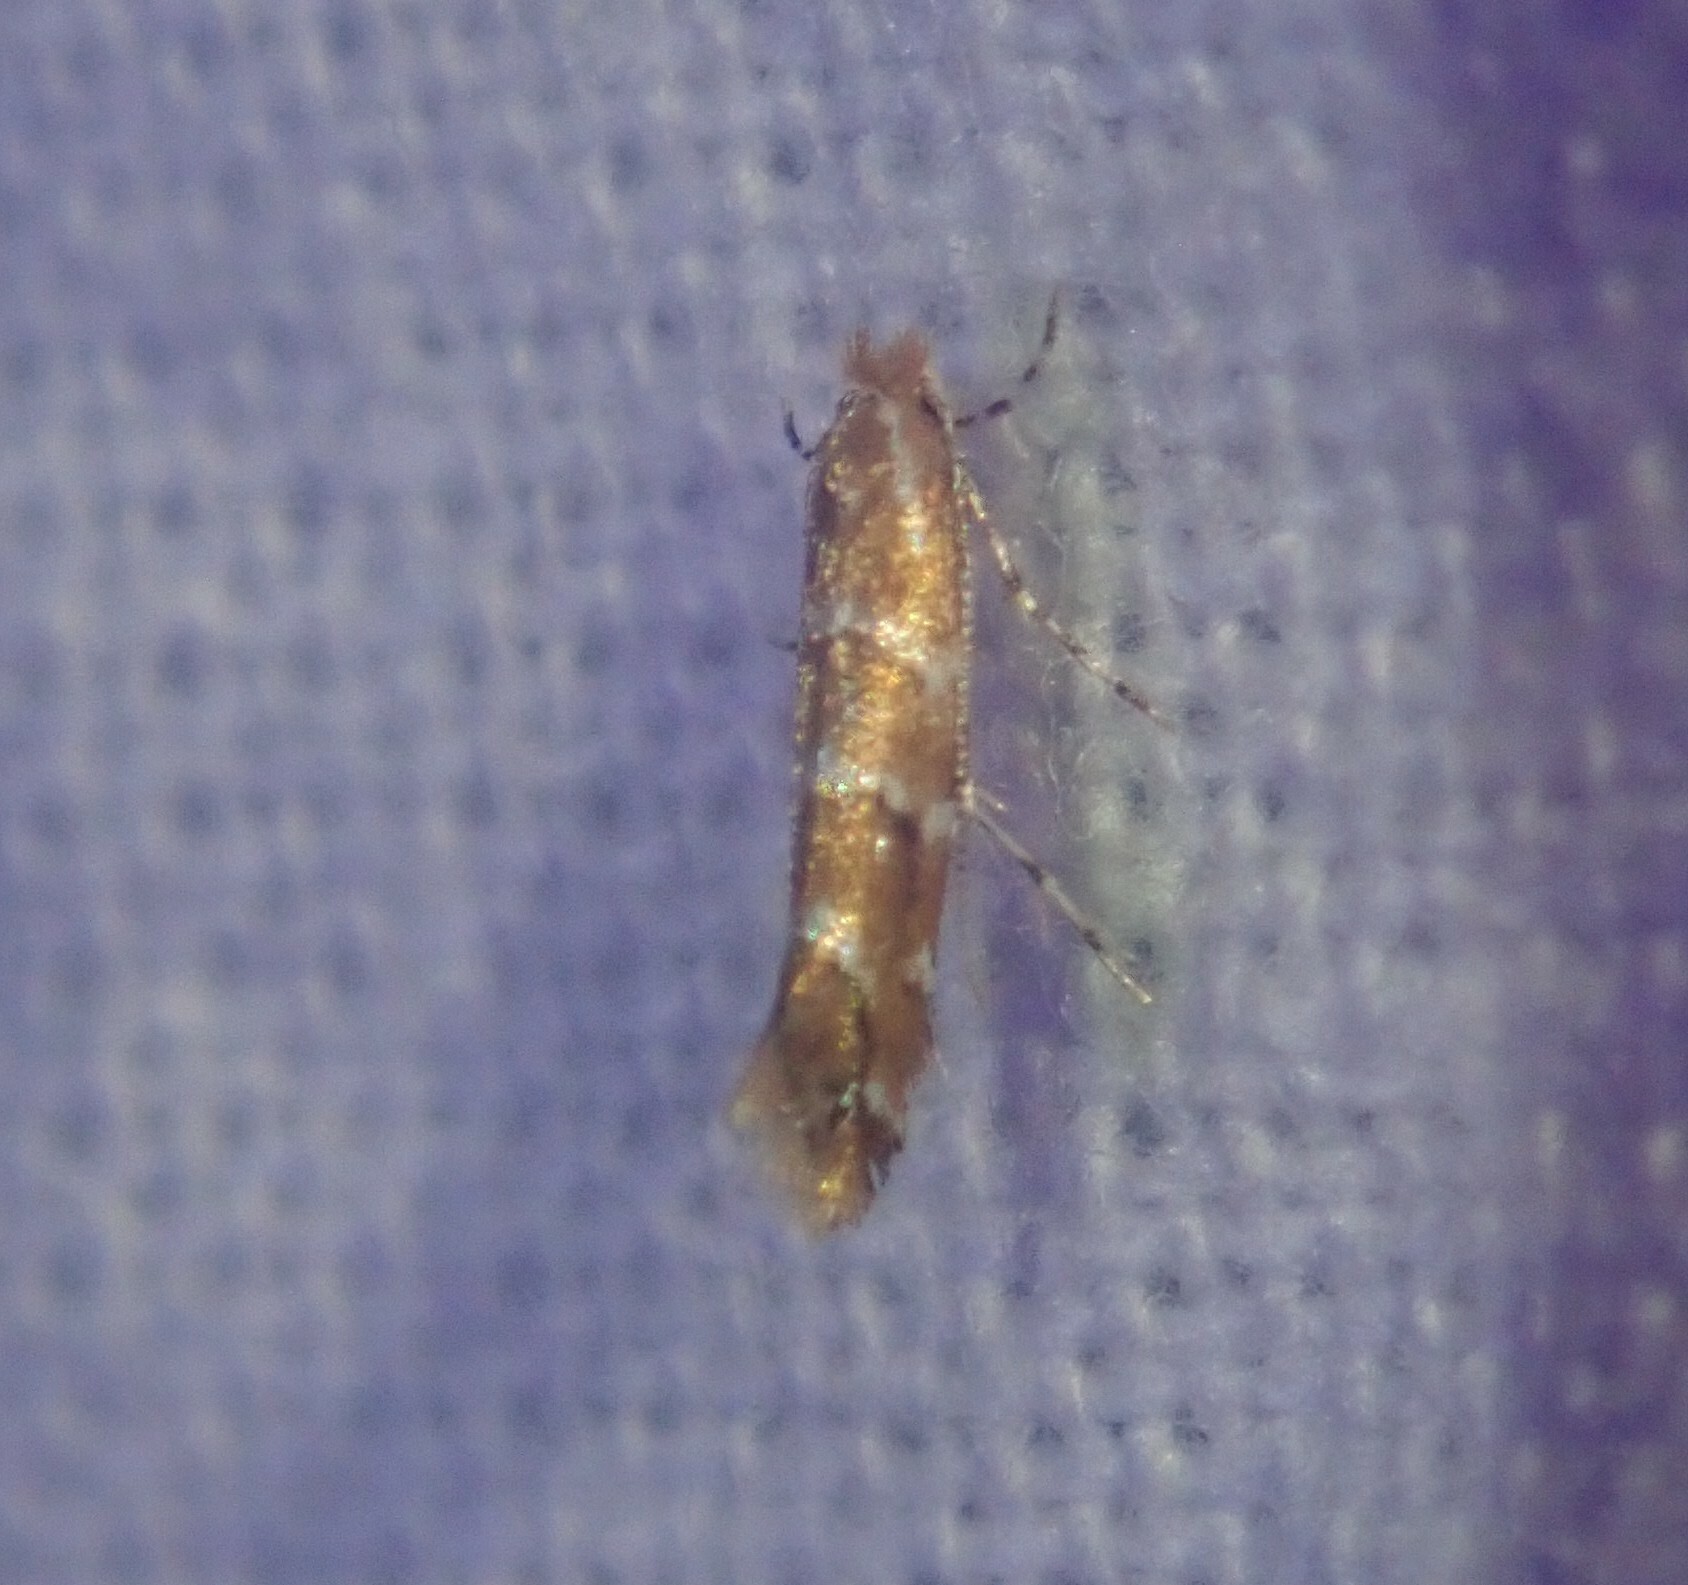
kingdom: Animalia
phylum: Arthropoda
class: Insecta
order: Lepidoptera
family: Gracillariidae
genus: Cameraria
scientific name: Cameraria ohridella
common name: Horse-chestnut leaf-miner
